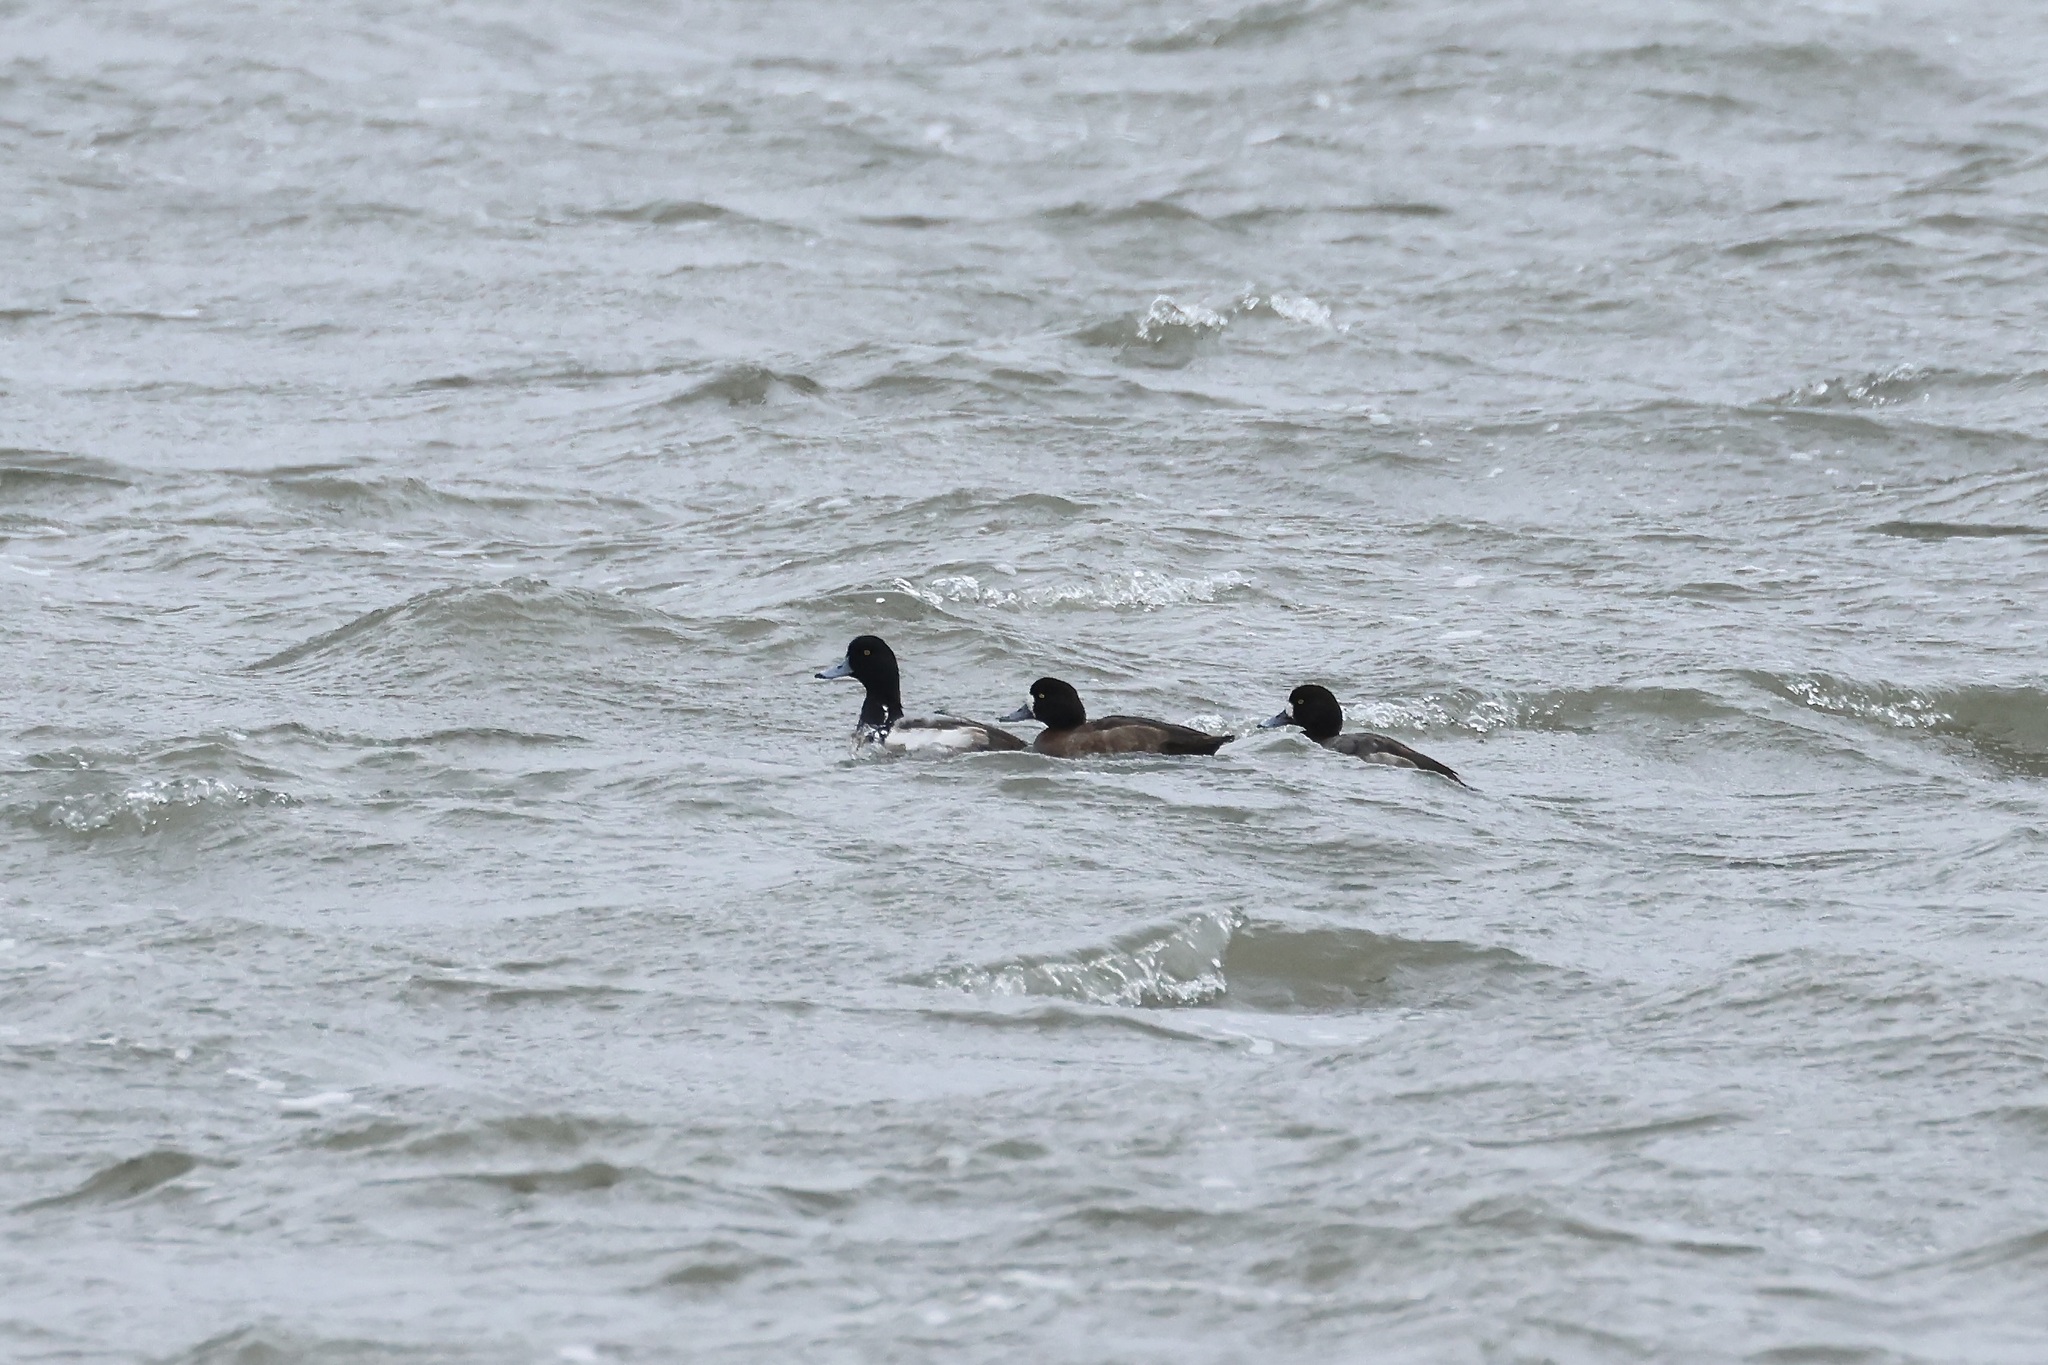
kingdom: Animalia
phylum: Chordata
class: Aves
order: Anseriformes
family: Anatidae
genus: Aythya
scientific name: Aythya marila
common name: Greater scaup
